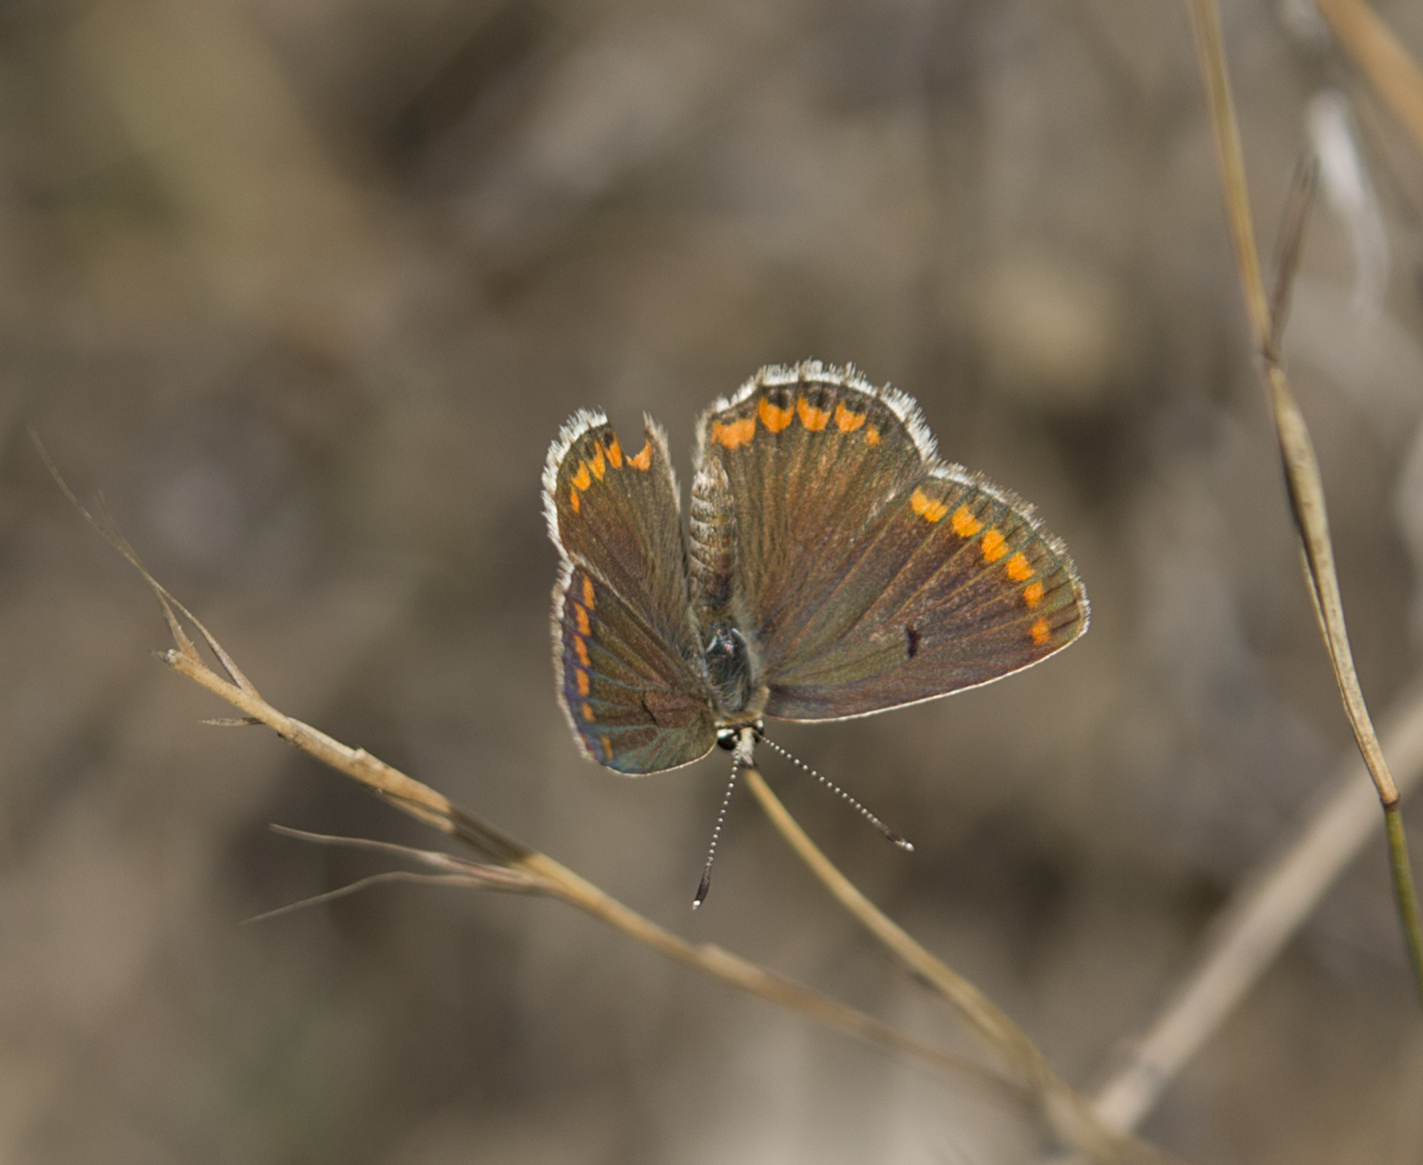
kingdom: Animalia
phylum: Arthropoda
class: Insecta
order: Lepidoptera
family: Lycaenidae
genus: Aricia
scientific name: Aricia agestis
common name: Brown argus
